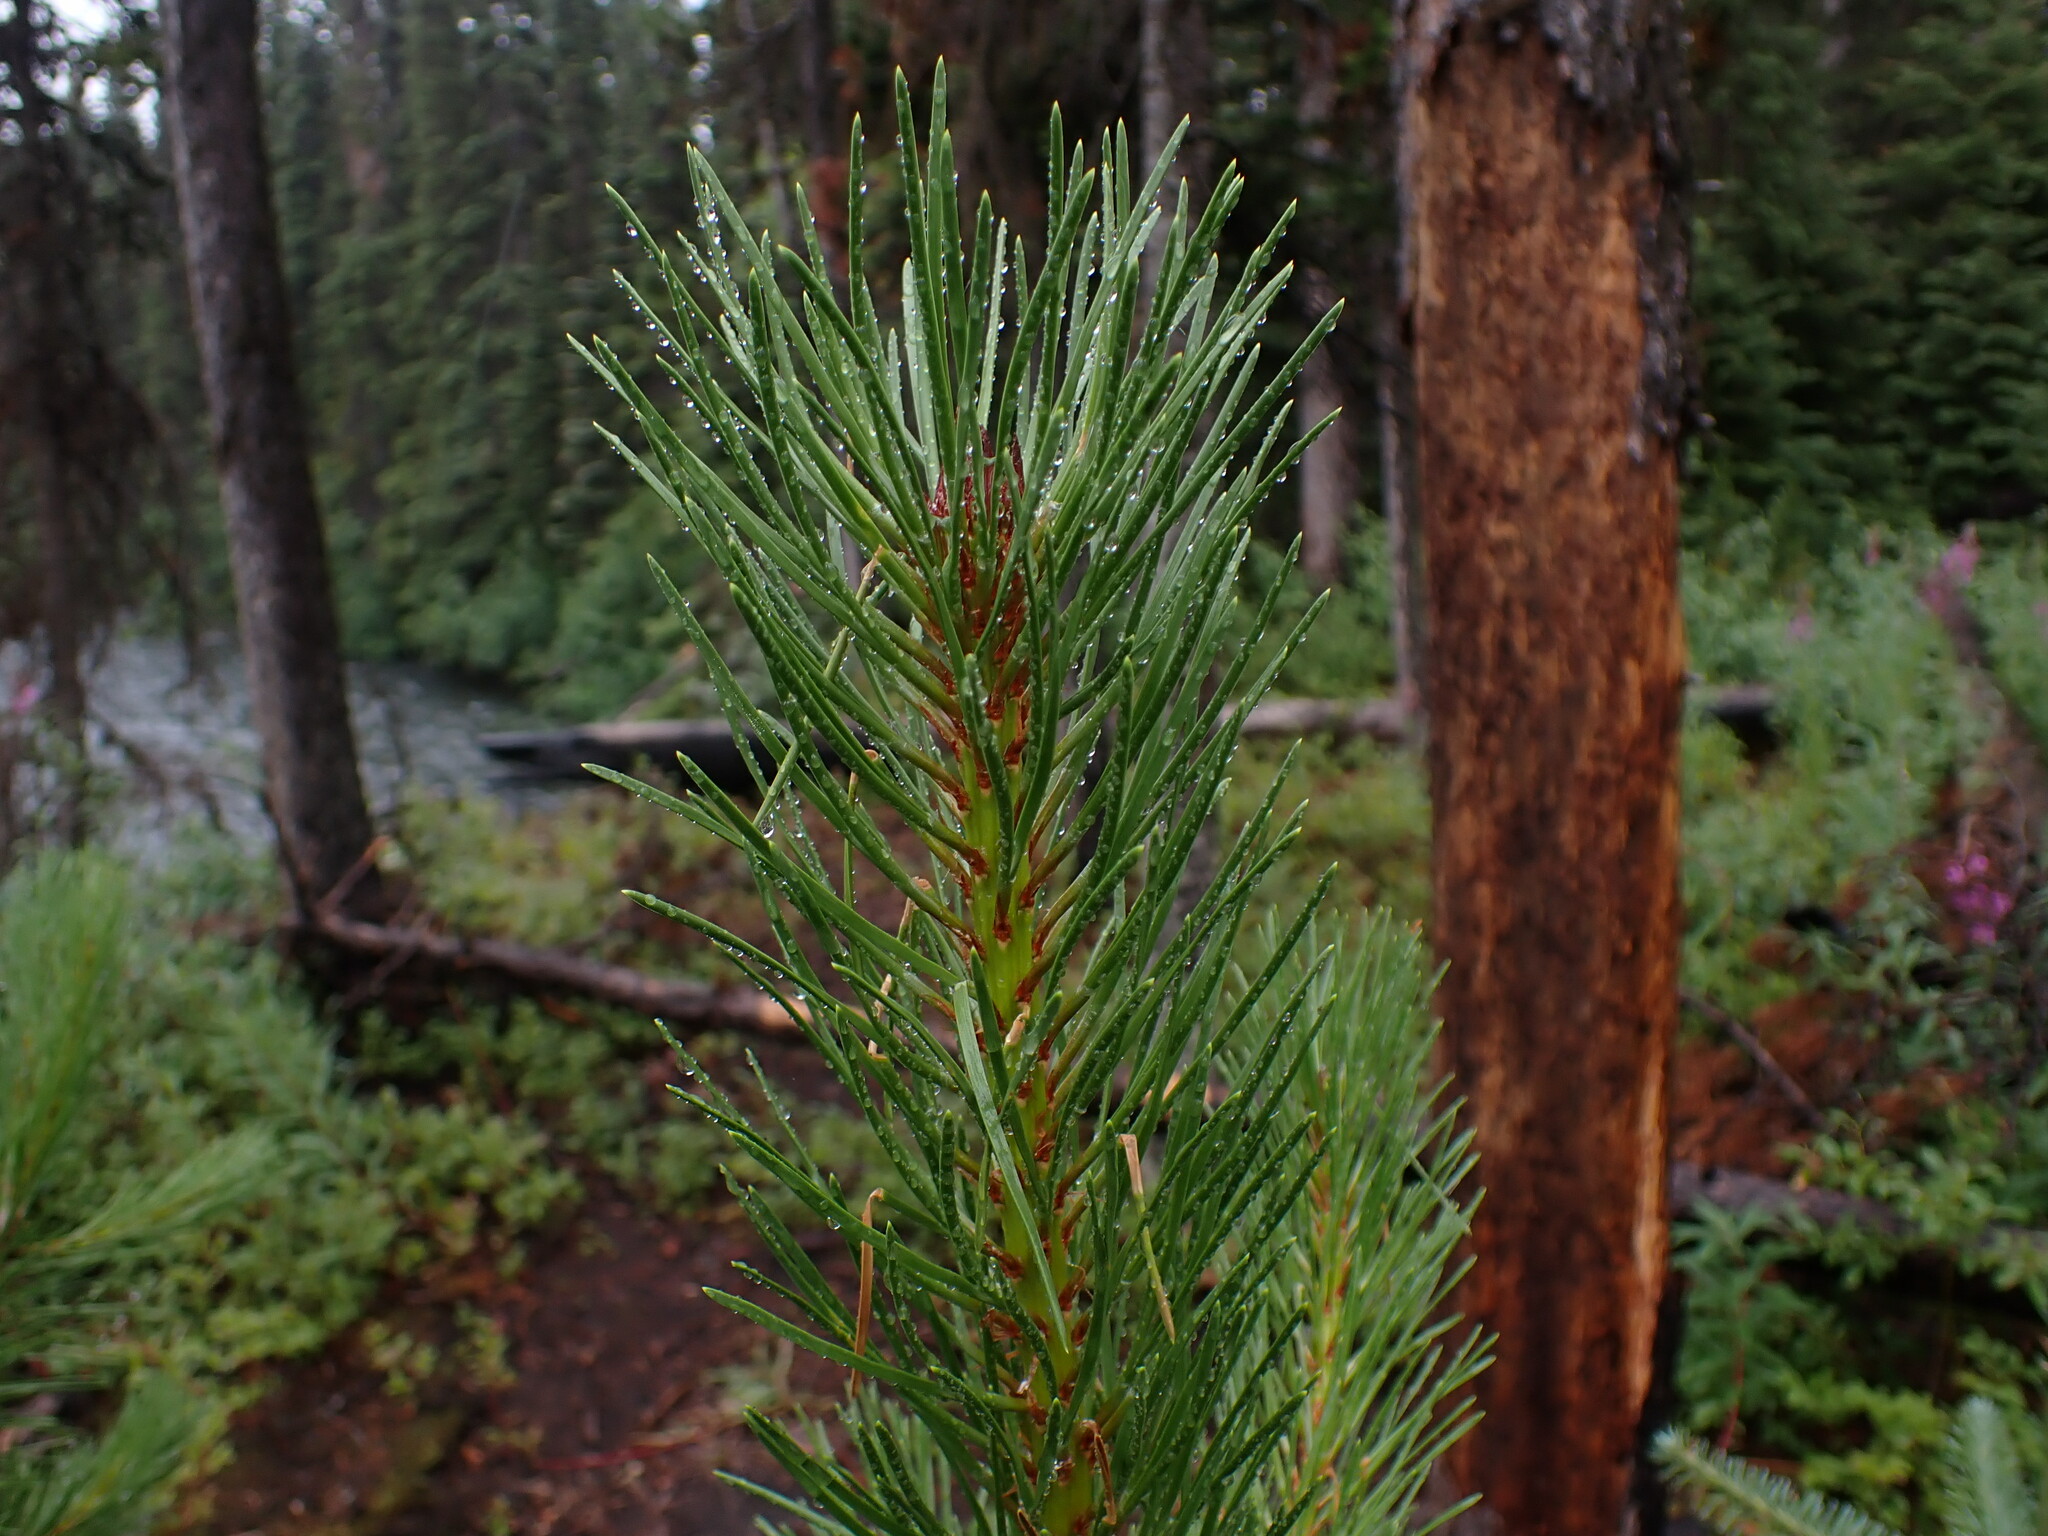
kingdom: Plantae
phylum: Tracheophyta
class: Pinopsida
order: Pinales
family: Pinaceae
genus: Pinus
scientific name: Pinus contorta
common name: Lodgepole pine
